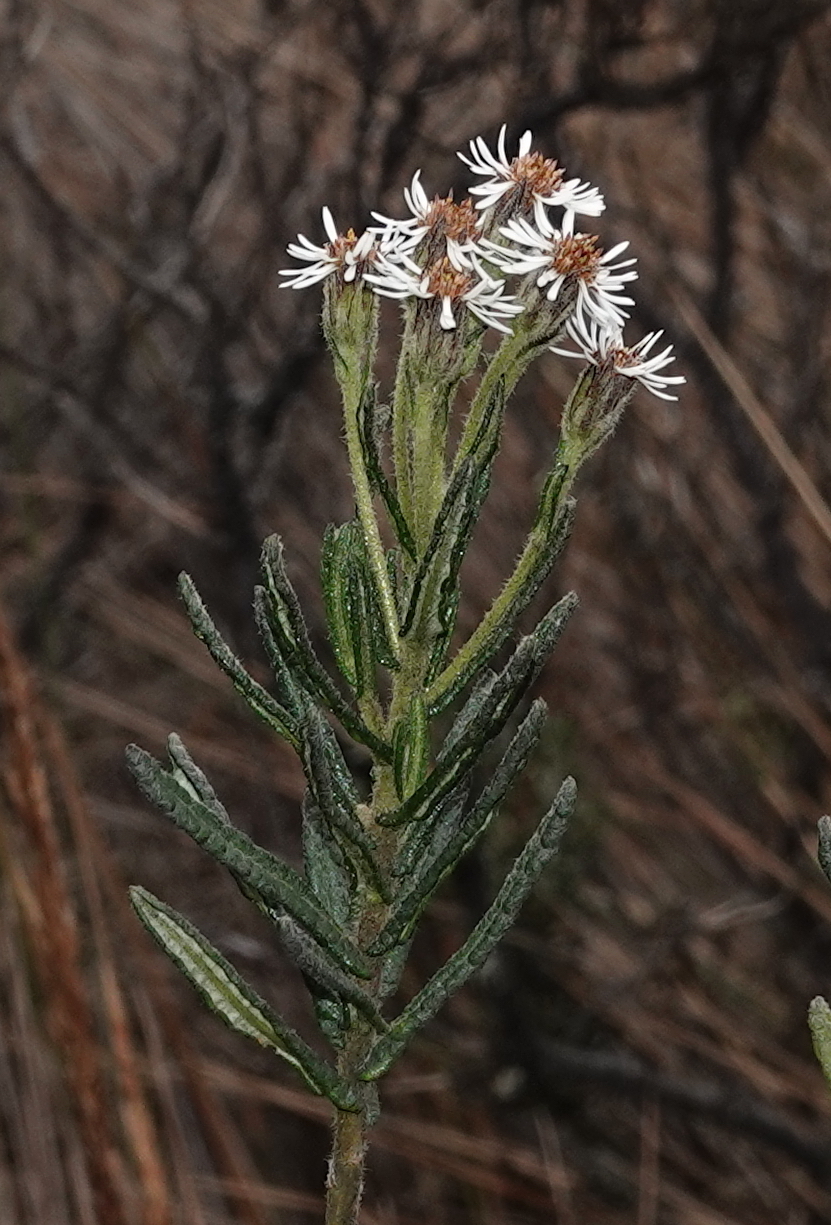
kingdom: Plantae
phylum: Tracheophyta
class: Magnoliopsida
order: Asterales
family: Asteraceae
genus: Linochilus
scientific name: Linochilus rupestris
